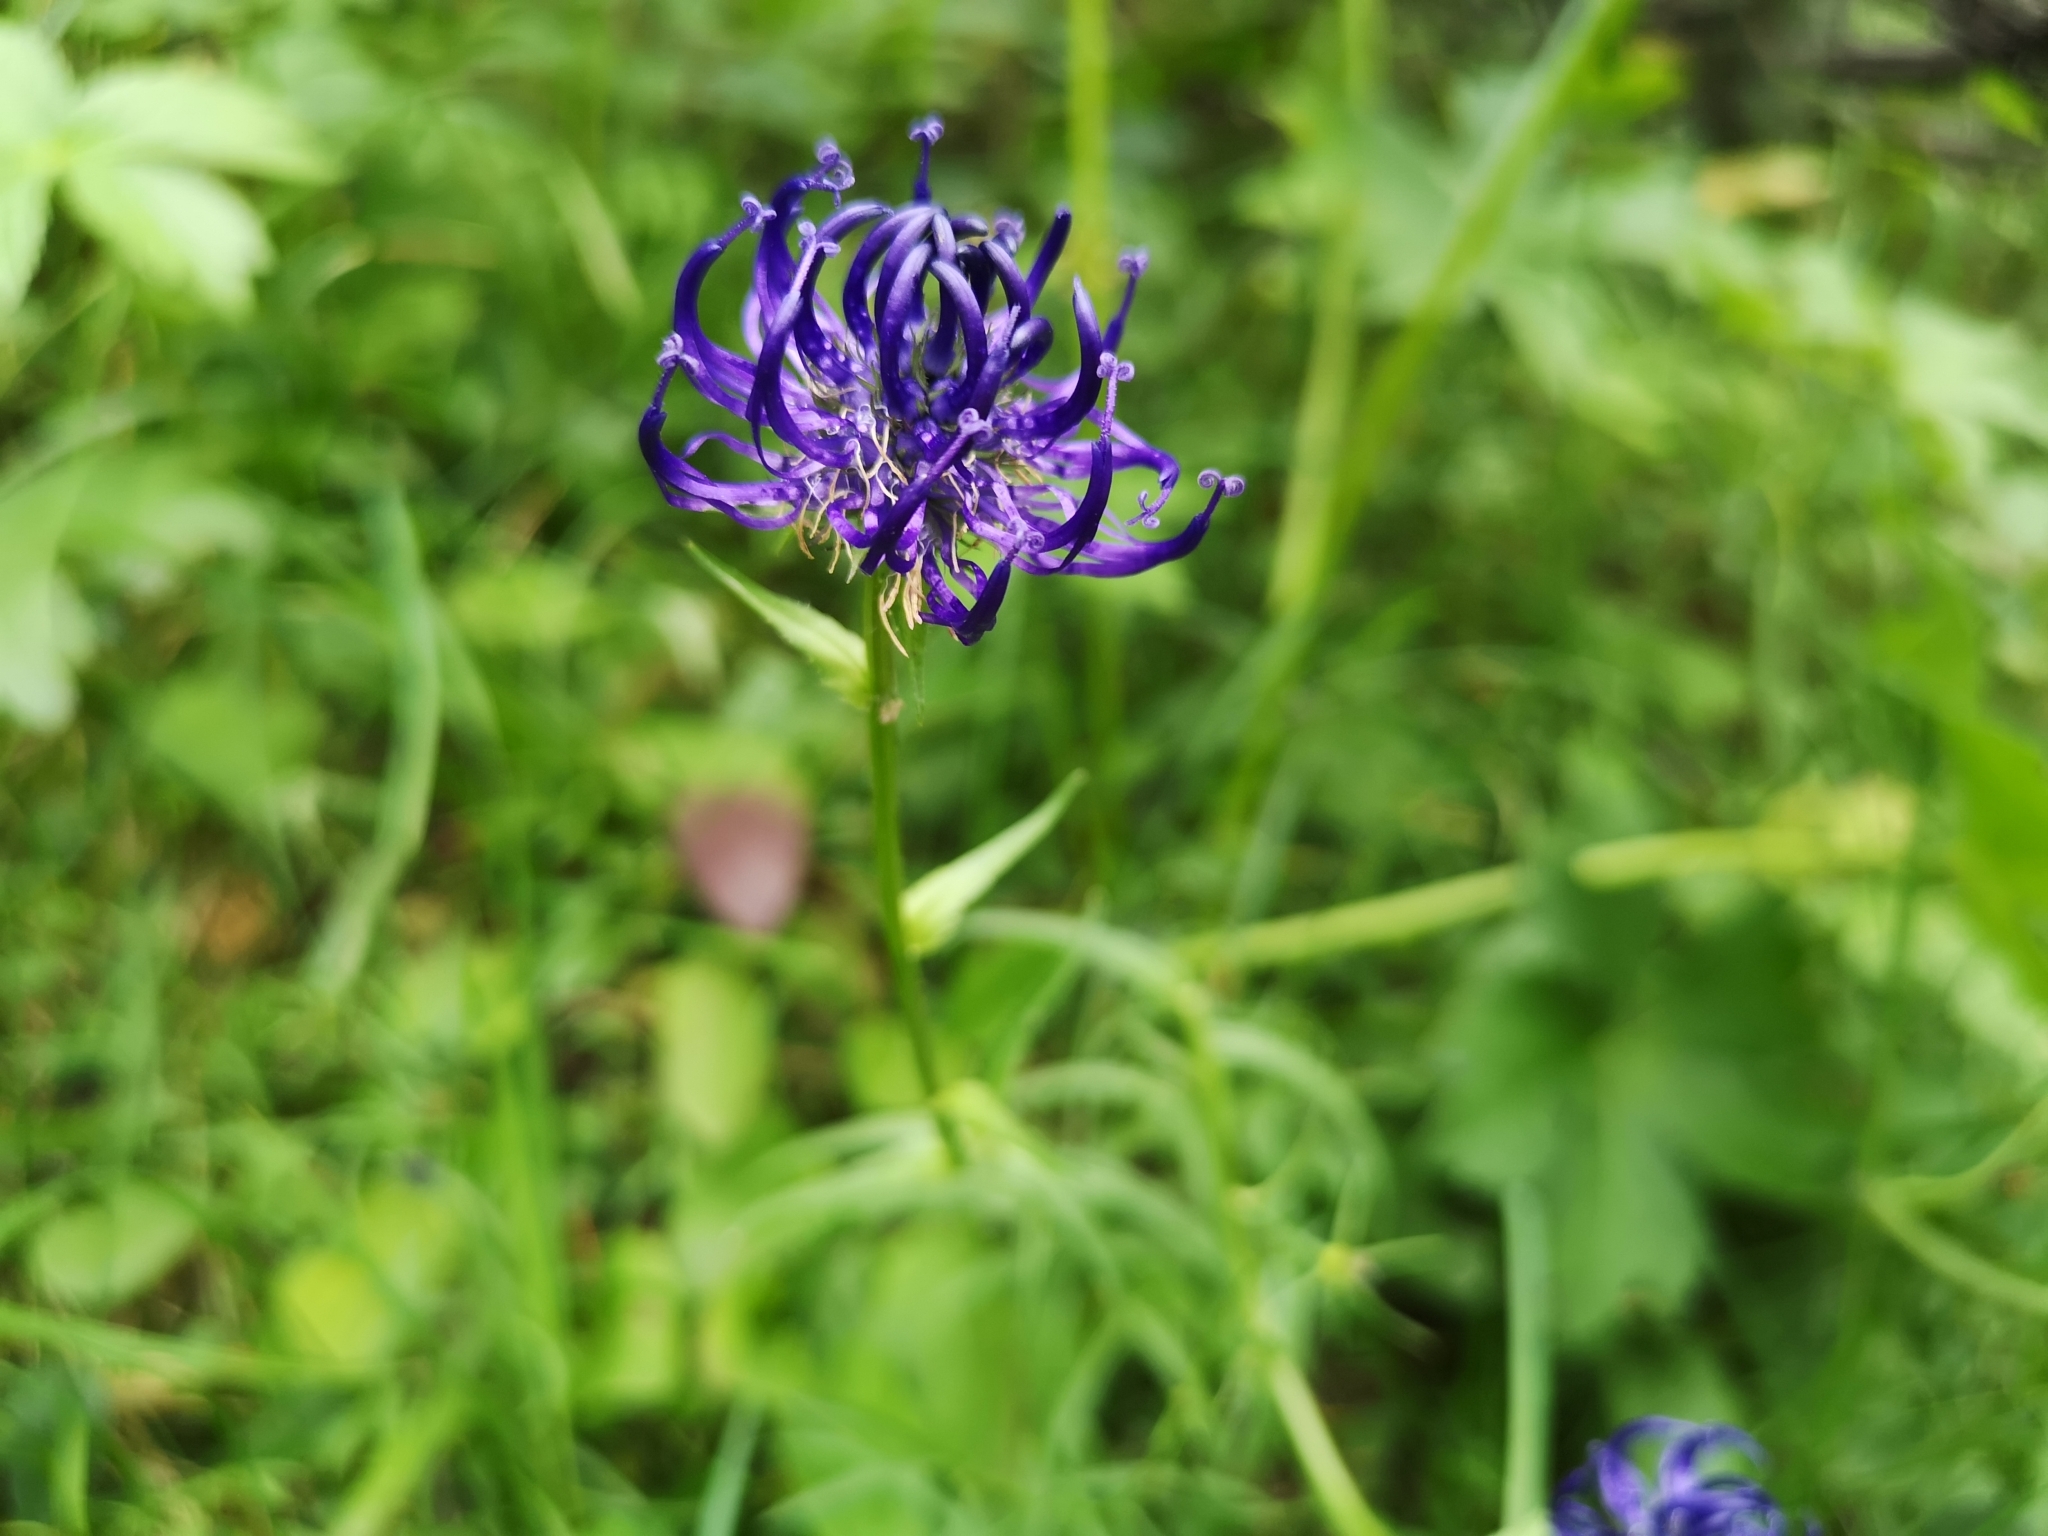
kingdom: Plantae
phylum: Tracheophyta
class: Magnoliopsida
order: Asterales
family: Campanulaceae
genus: Phyteuma
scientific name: Phyteuma orbiculare
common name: Round-headed rampion
